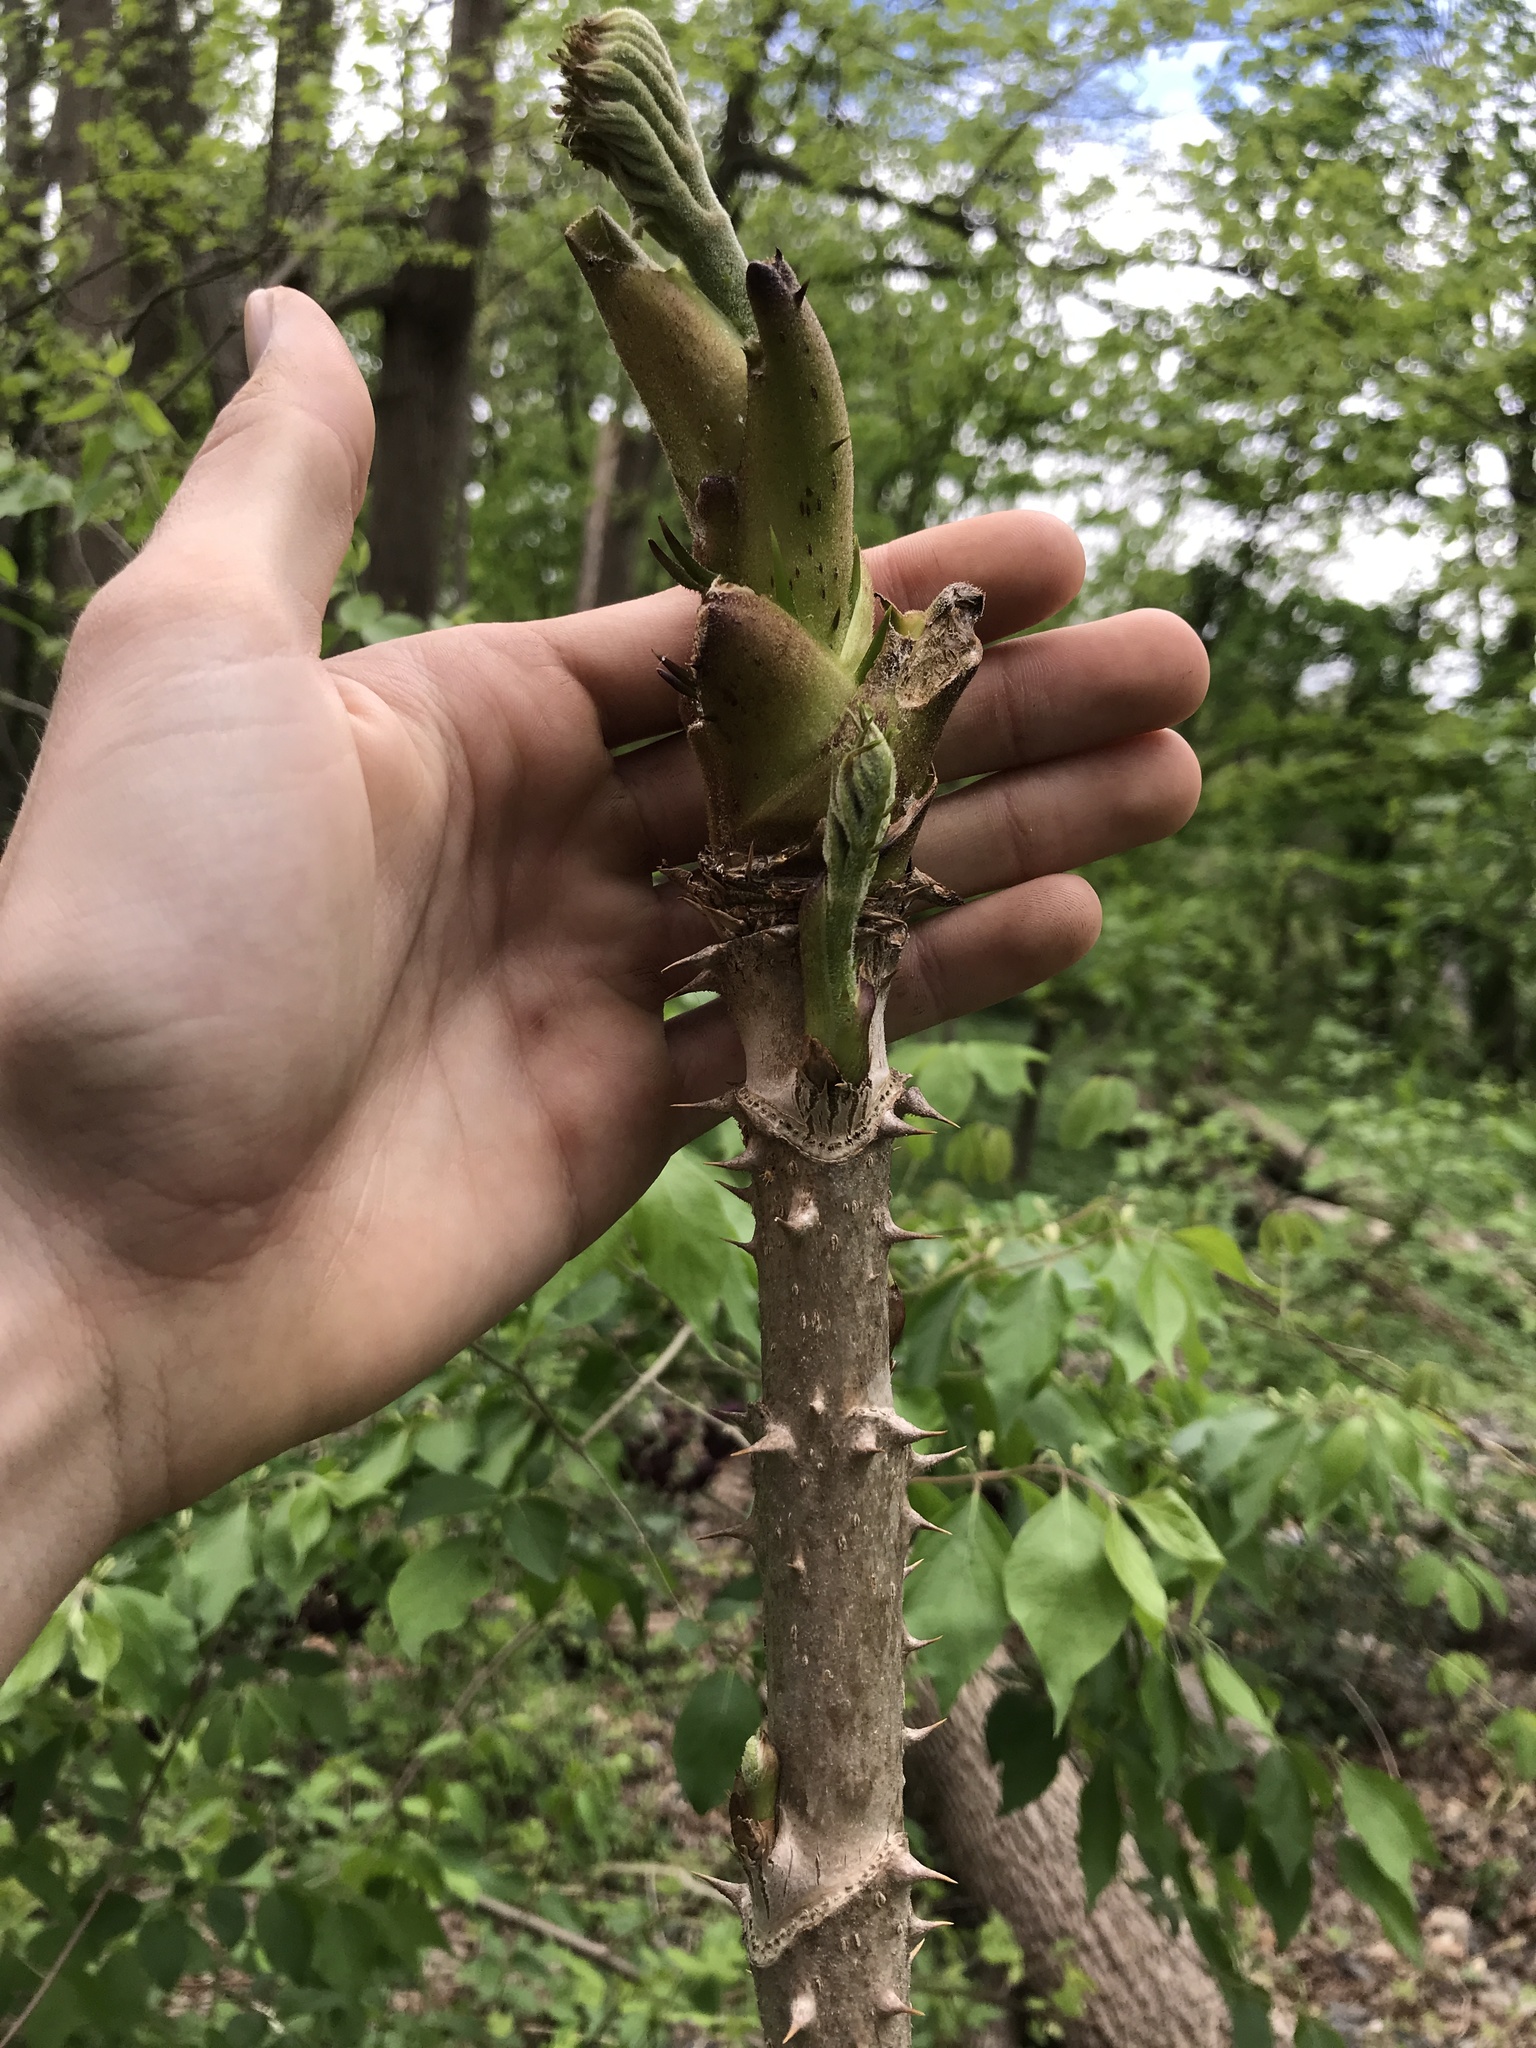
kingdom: Plantae
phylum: Tracheophyta
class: Magnoliopsida
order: Apiales
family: Araliaceae
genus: Aralia
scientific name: Aralia elata
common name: Japanese angelica-tree
